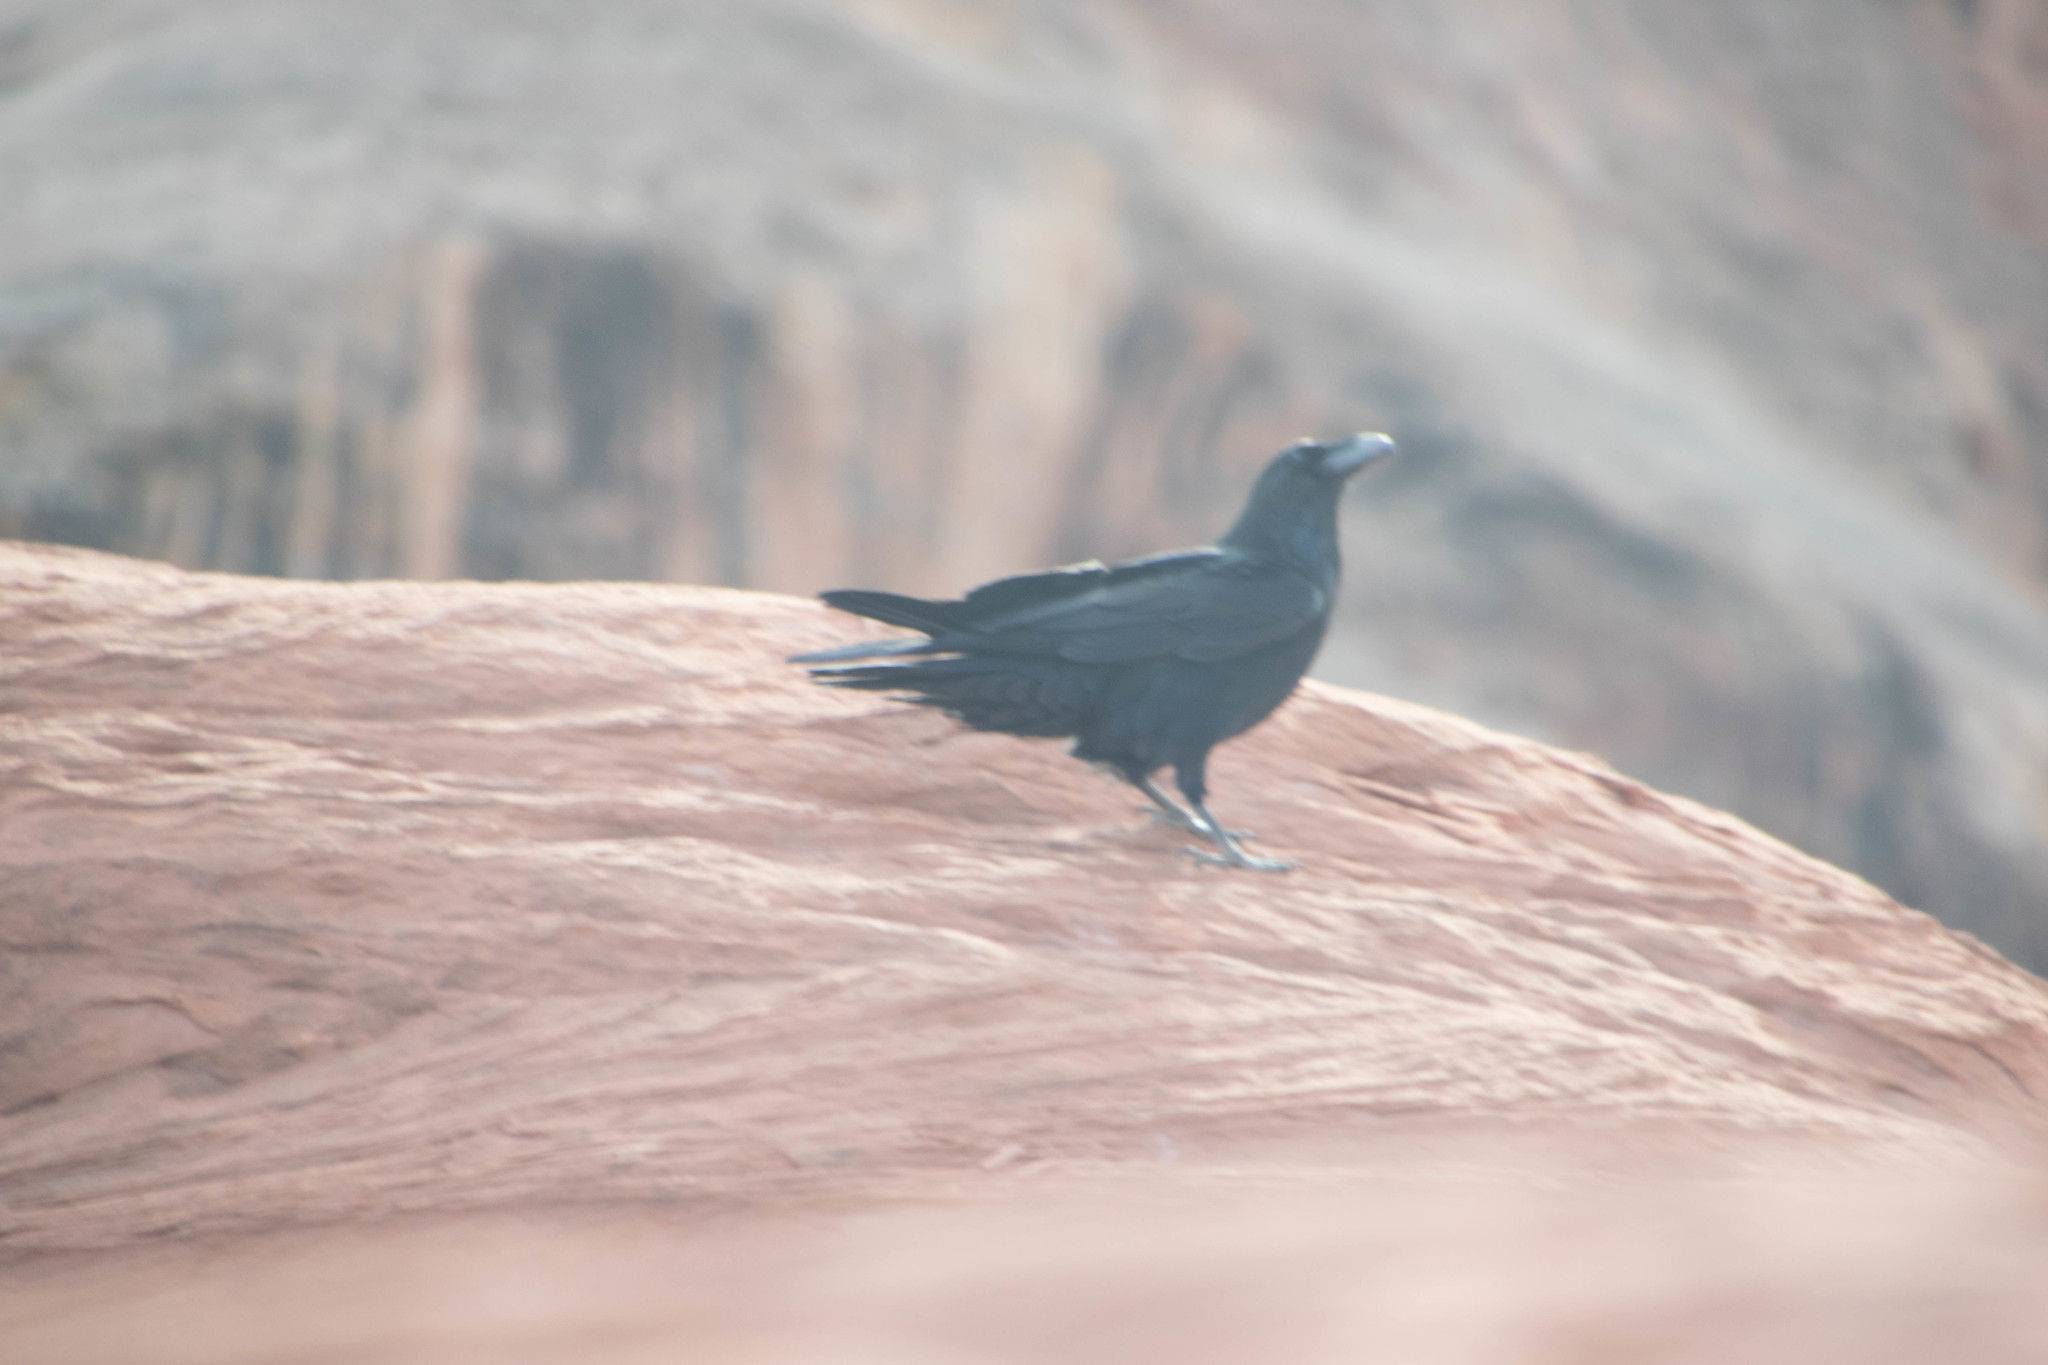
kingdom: Animalia
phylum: Chordata
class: Aves
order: Passeriformes
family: Corvidae
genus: Corvus
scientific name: Corvus corax
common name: Common raven
